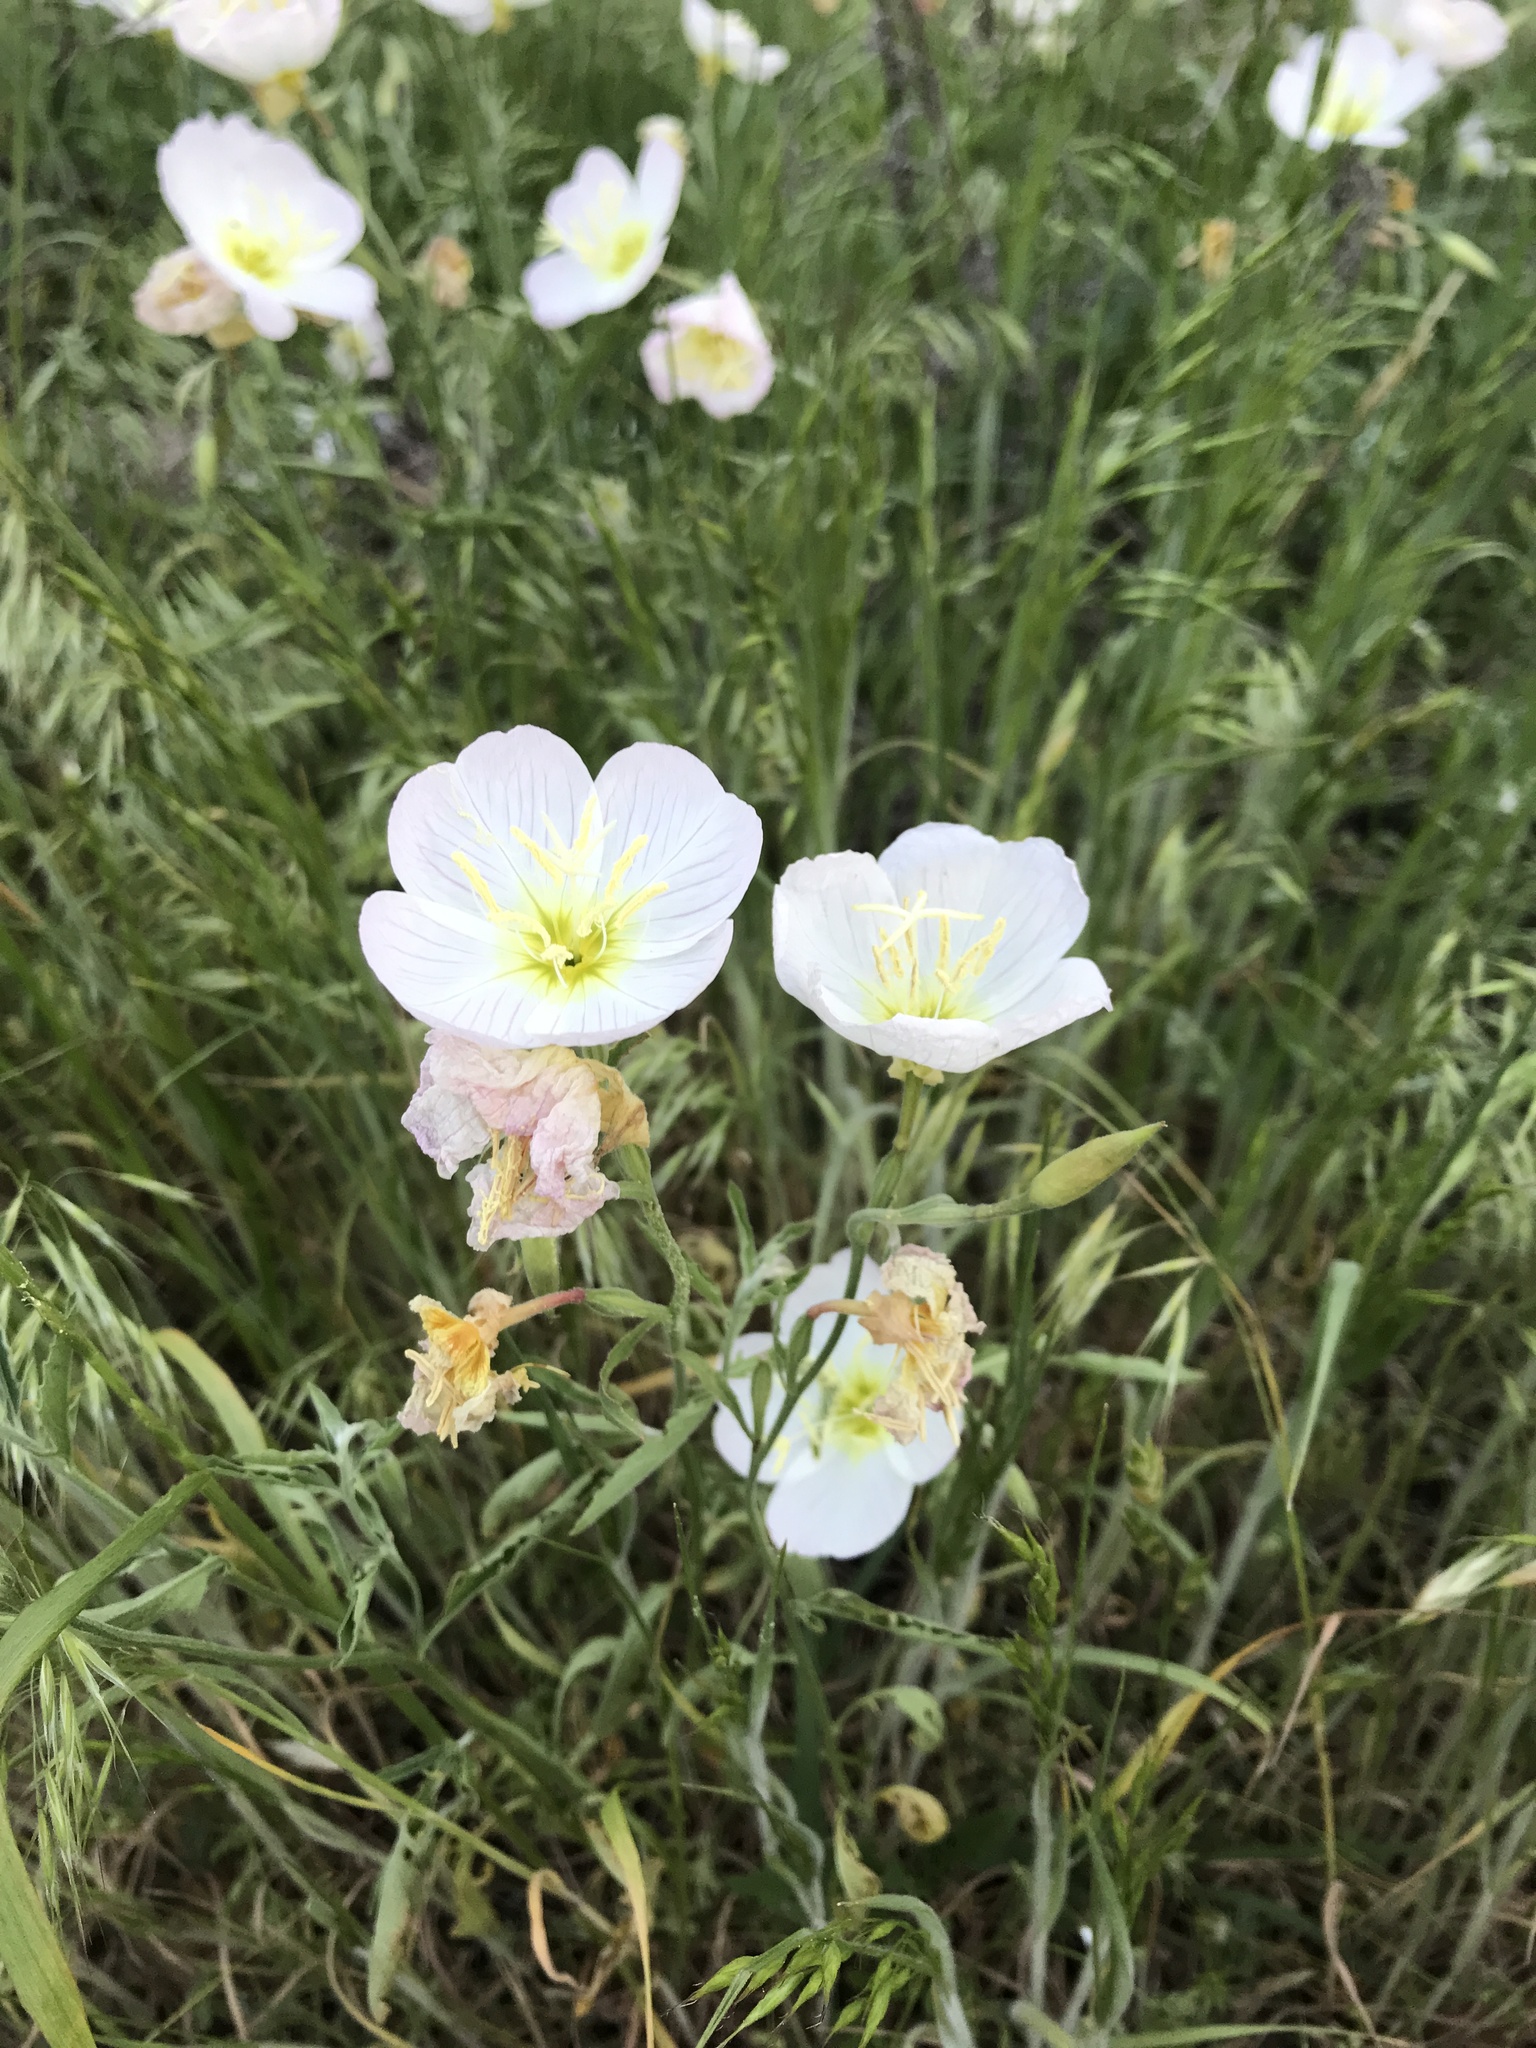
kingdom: Plantae
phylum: Tracheophyta
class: Magnoliopsida
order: Myrtales
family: Onagraceae
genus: Oenothera
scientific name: Oenothera speciosa
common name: White evening-primrose
